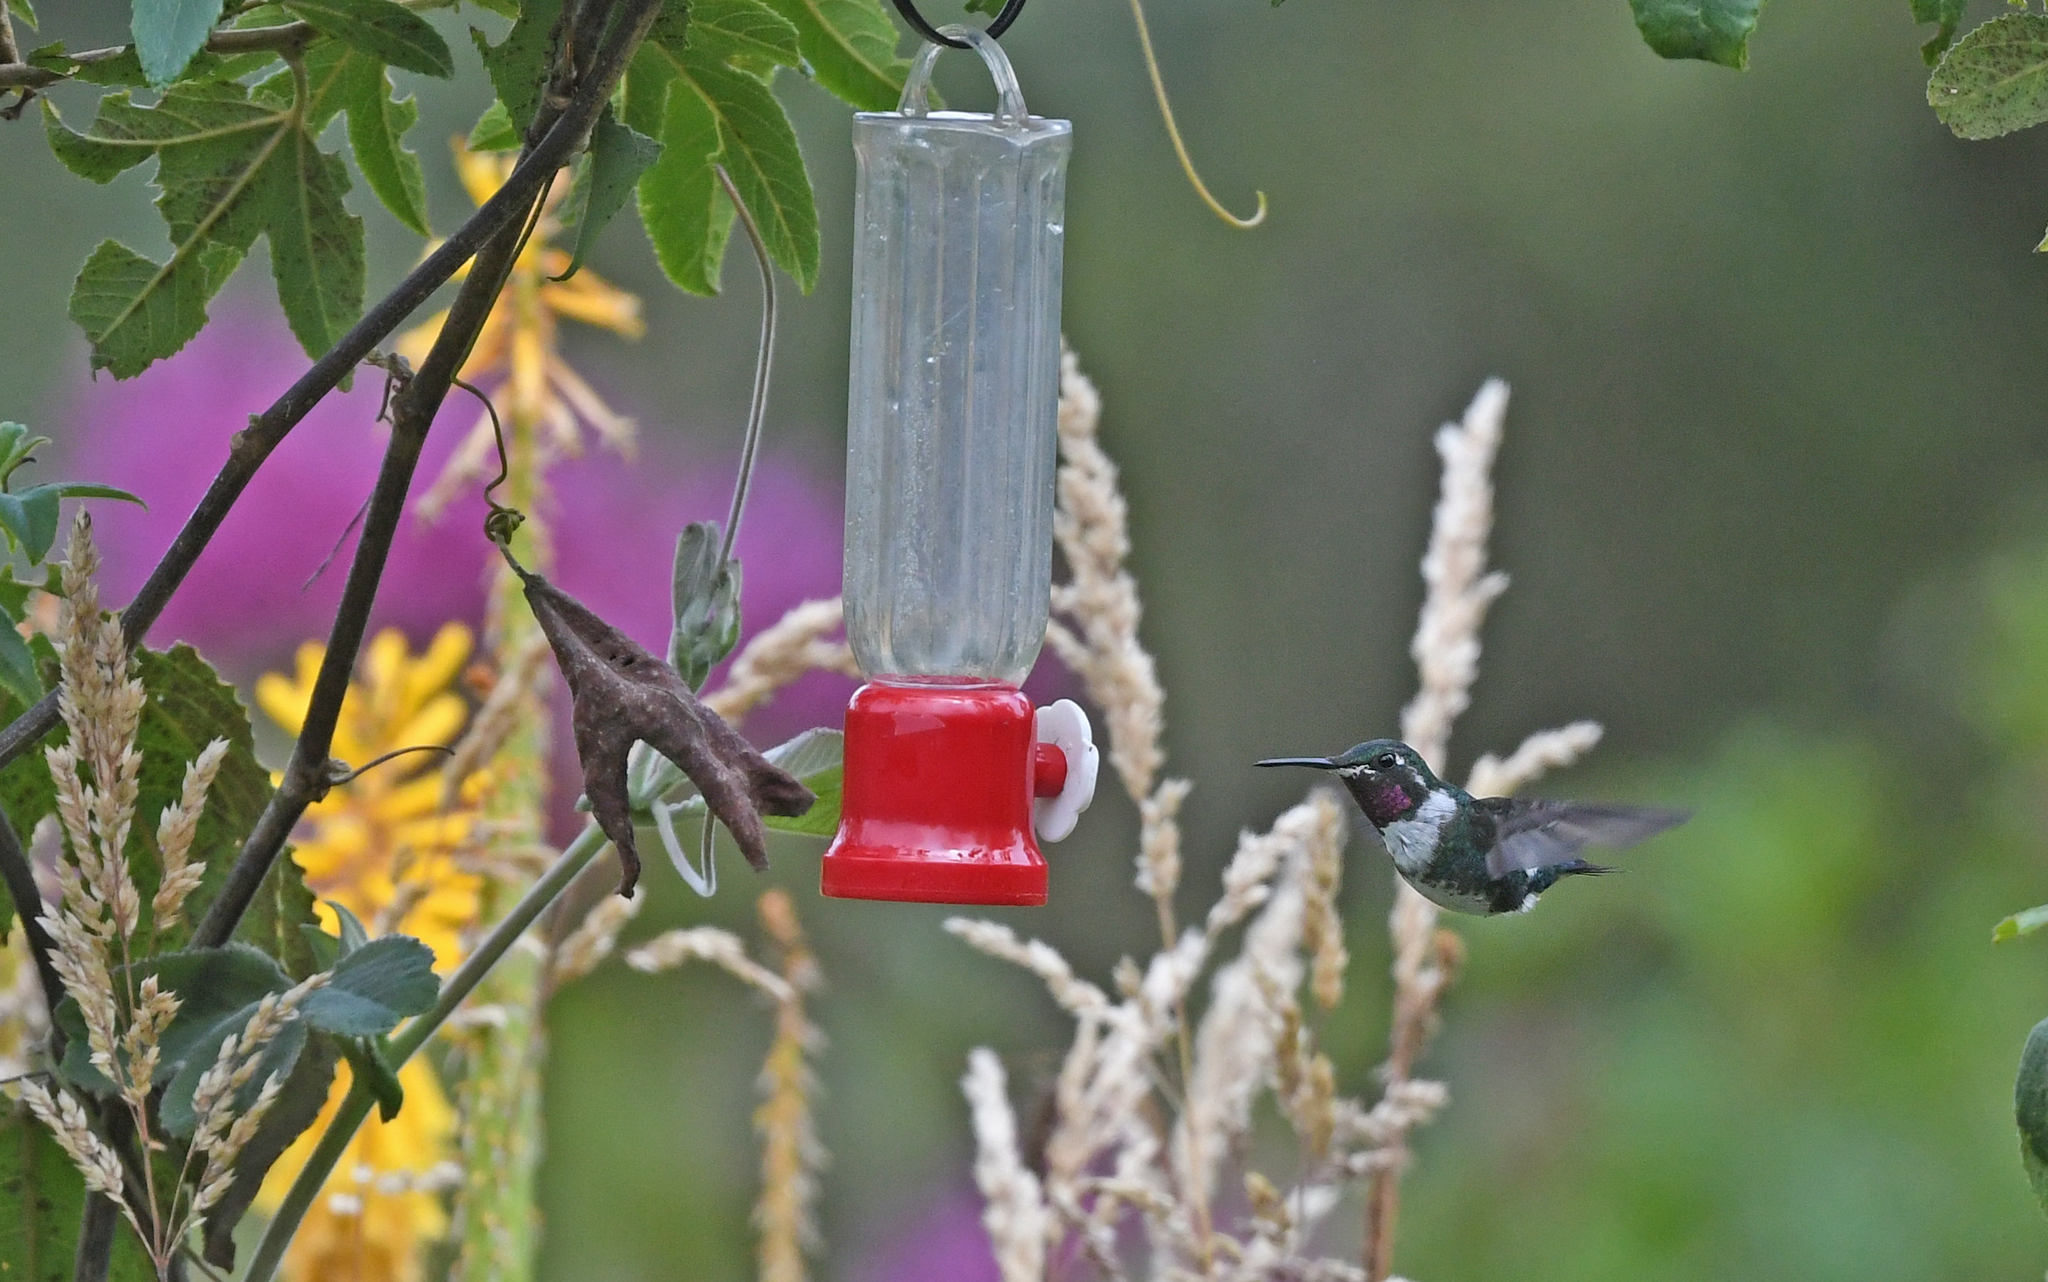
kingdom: Animalia
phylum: Chordata
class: Aves
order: Apodiformes
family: Trochilidae
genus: Chaetocercus
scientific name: Chaetocercus mulsant
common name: White-bellied woodstar
